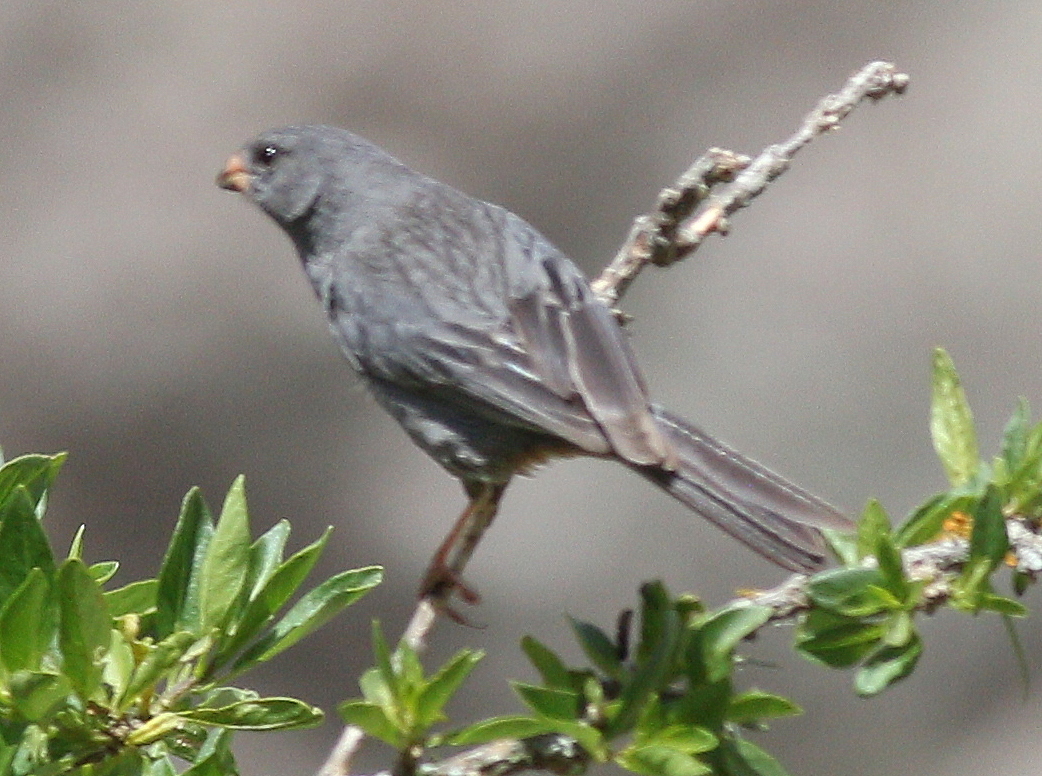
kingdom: Animalia
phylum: Chordata
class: Aves
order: Passeriformes
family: Thraupidae
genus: Catamenia
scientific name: Catamenia inornata
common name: Plain-colored seedeater
